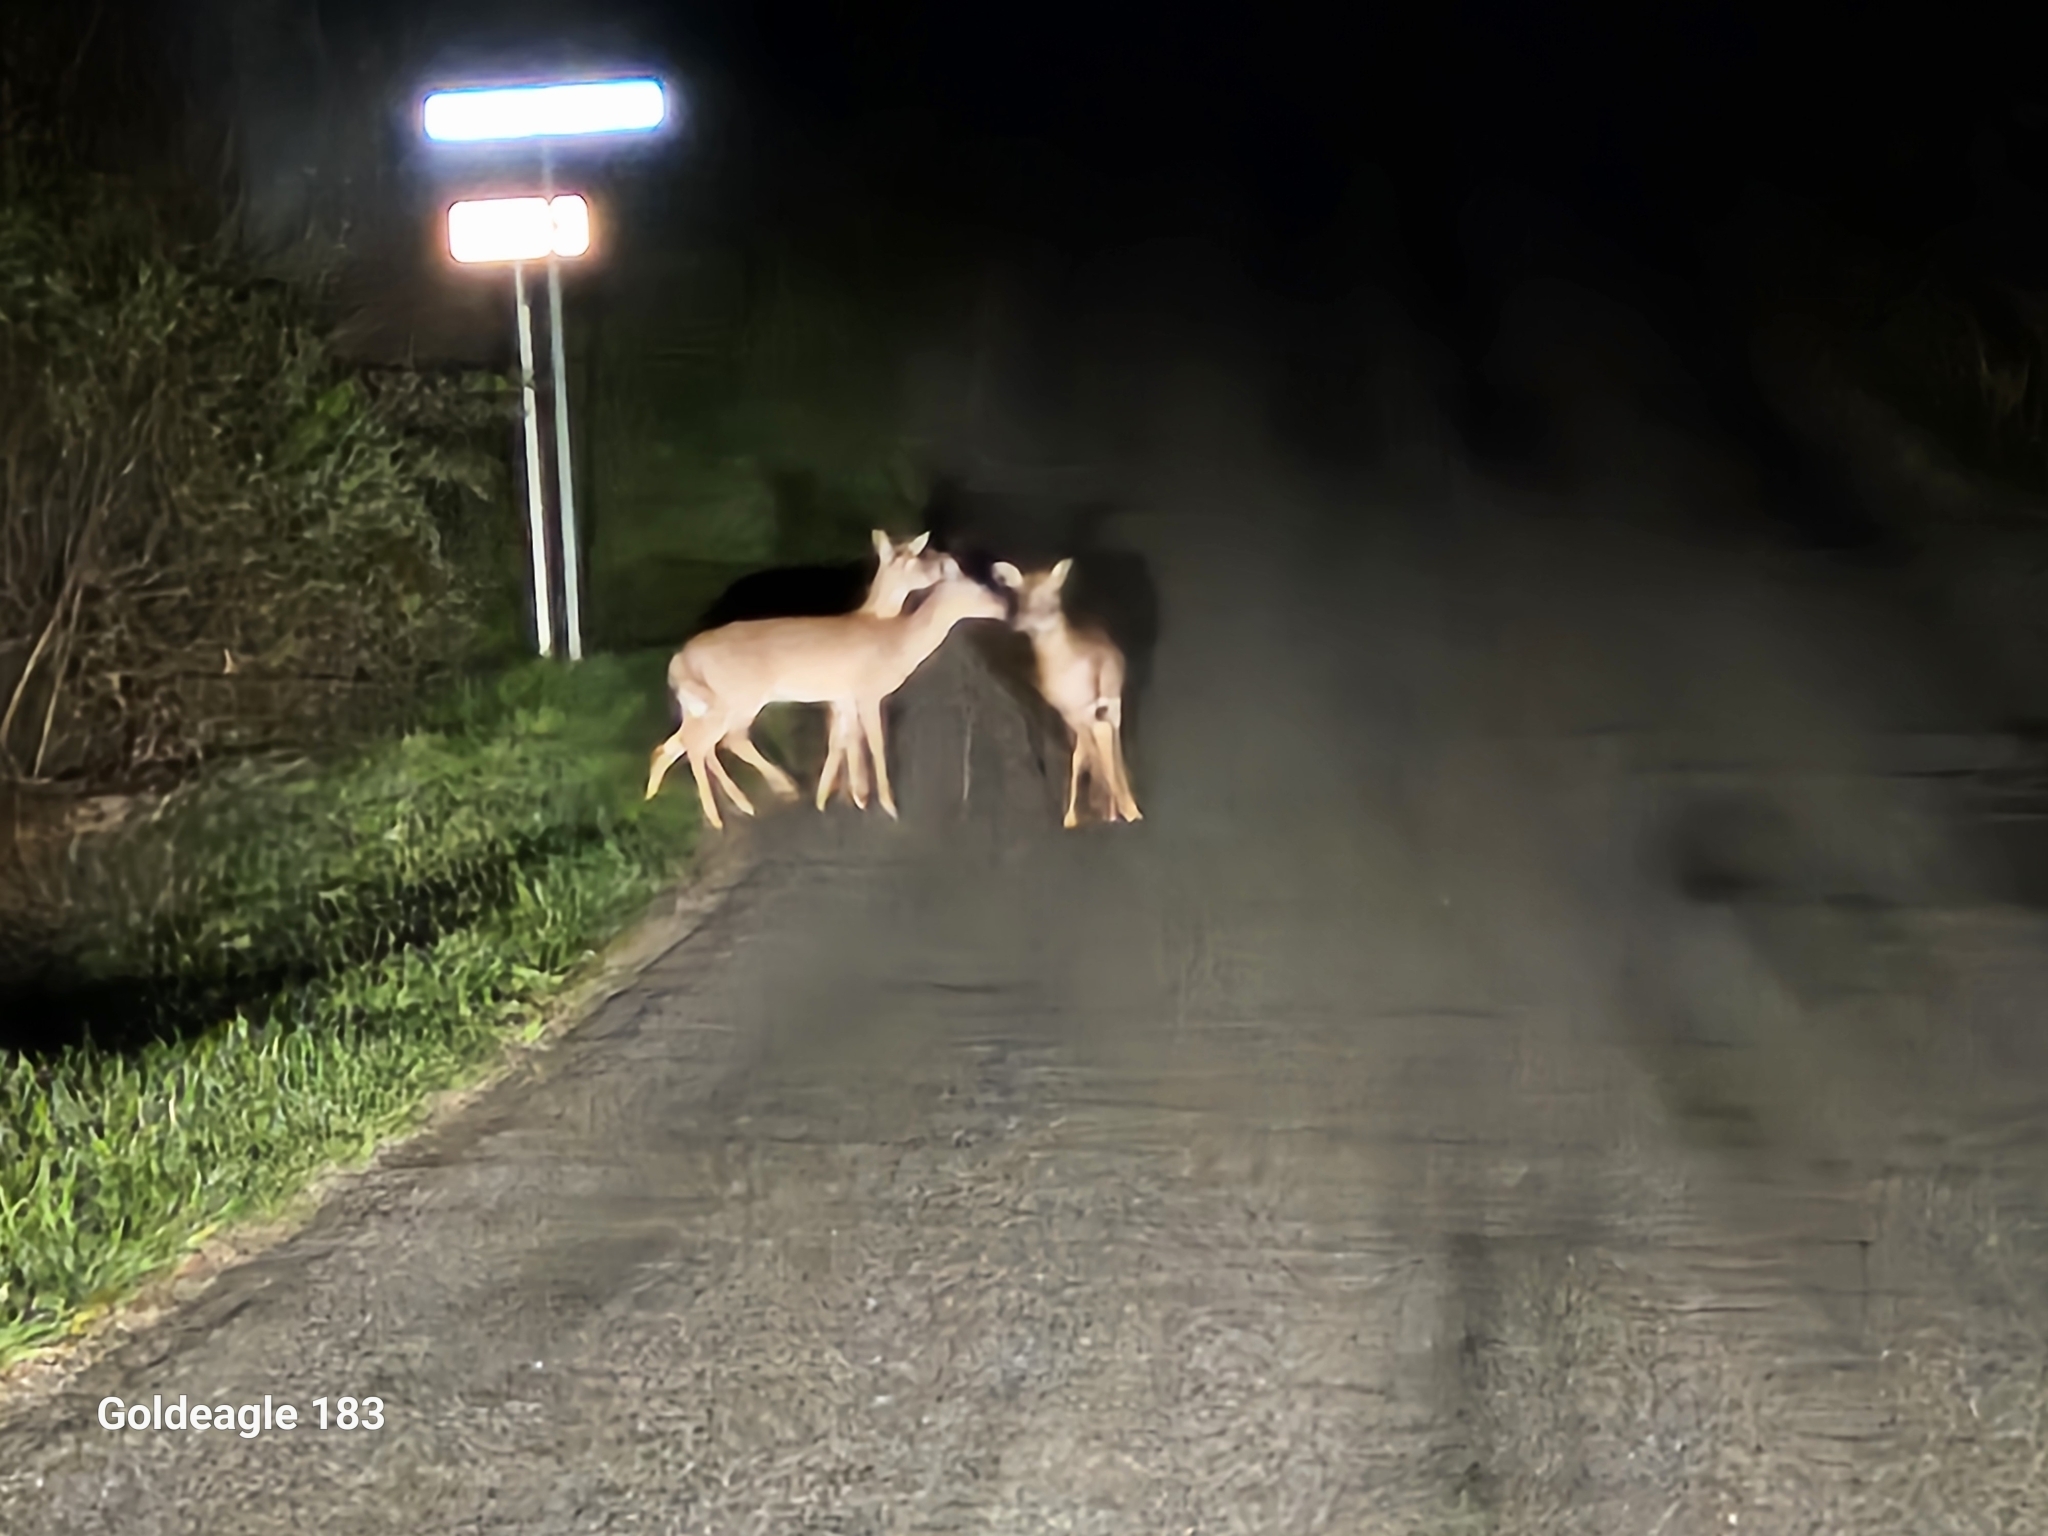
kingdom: Animalia
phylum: Chordata
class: Mammalia
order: Artiodactyla
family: Cervidae
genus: Odocoileus
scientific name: Odocoileus virginianus
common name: White-tailed deer
